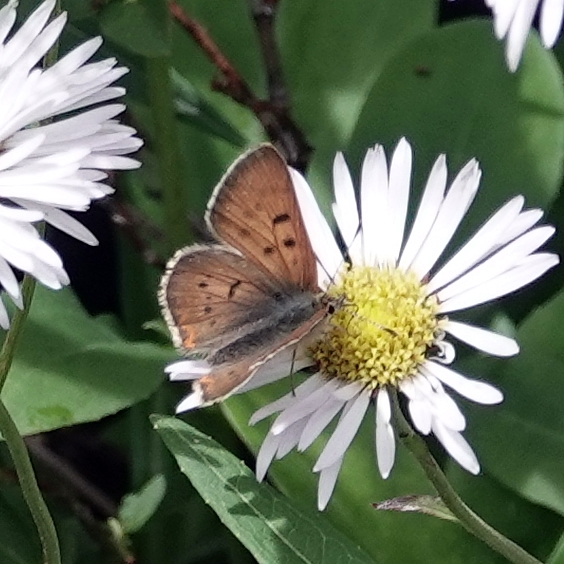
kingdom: Animalia
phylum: Arthropoda
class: Insecta
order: Lepidoptera
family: Lycaenidae
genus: Tharsalea
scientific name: Tharsalea dorcas
